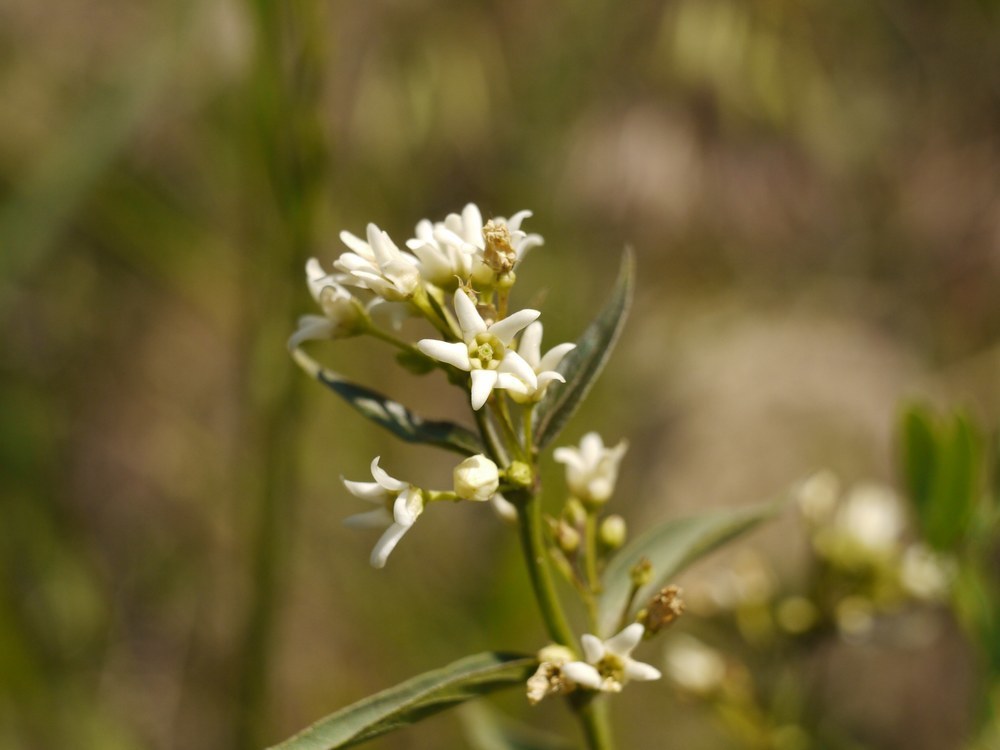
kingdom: Plantae
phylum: Tracheophyta
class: Magnoliopsida
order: Gentianales
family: Apocynaceae
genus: Vincetoxicum
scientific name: Vincetoxicum hirundinaria
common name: White swallowwort
